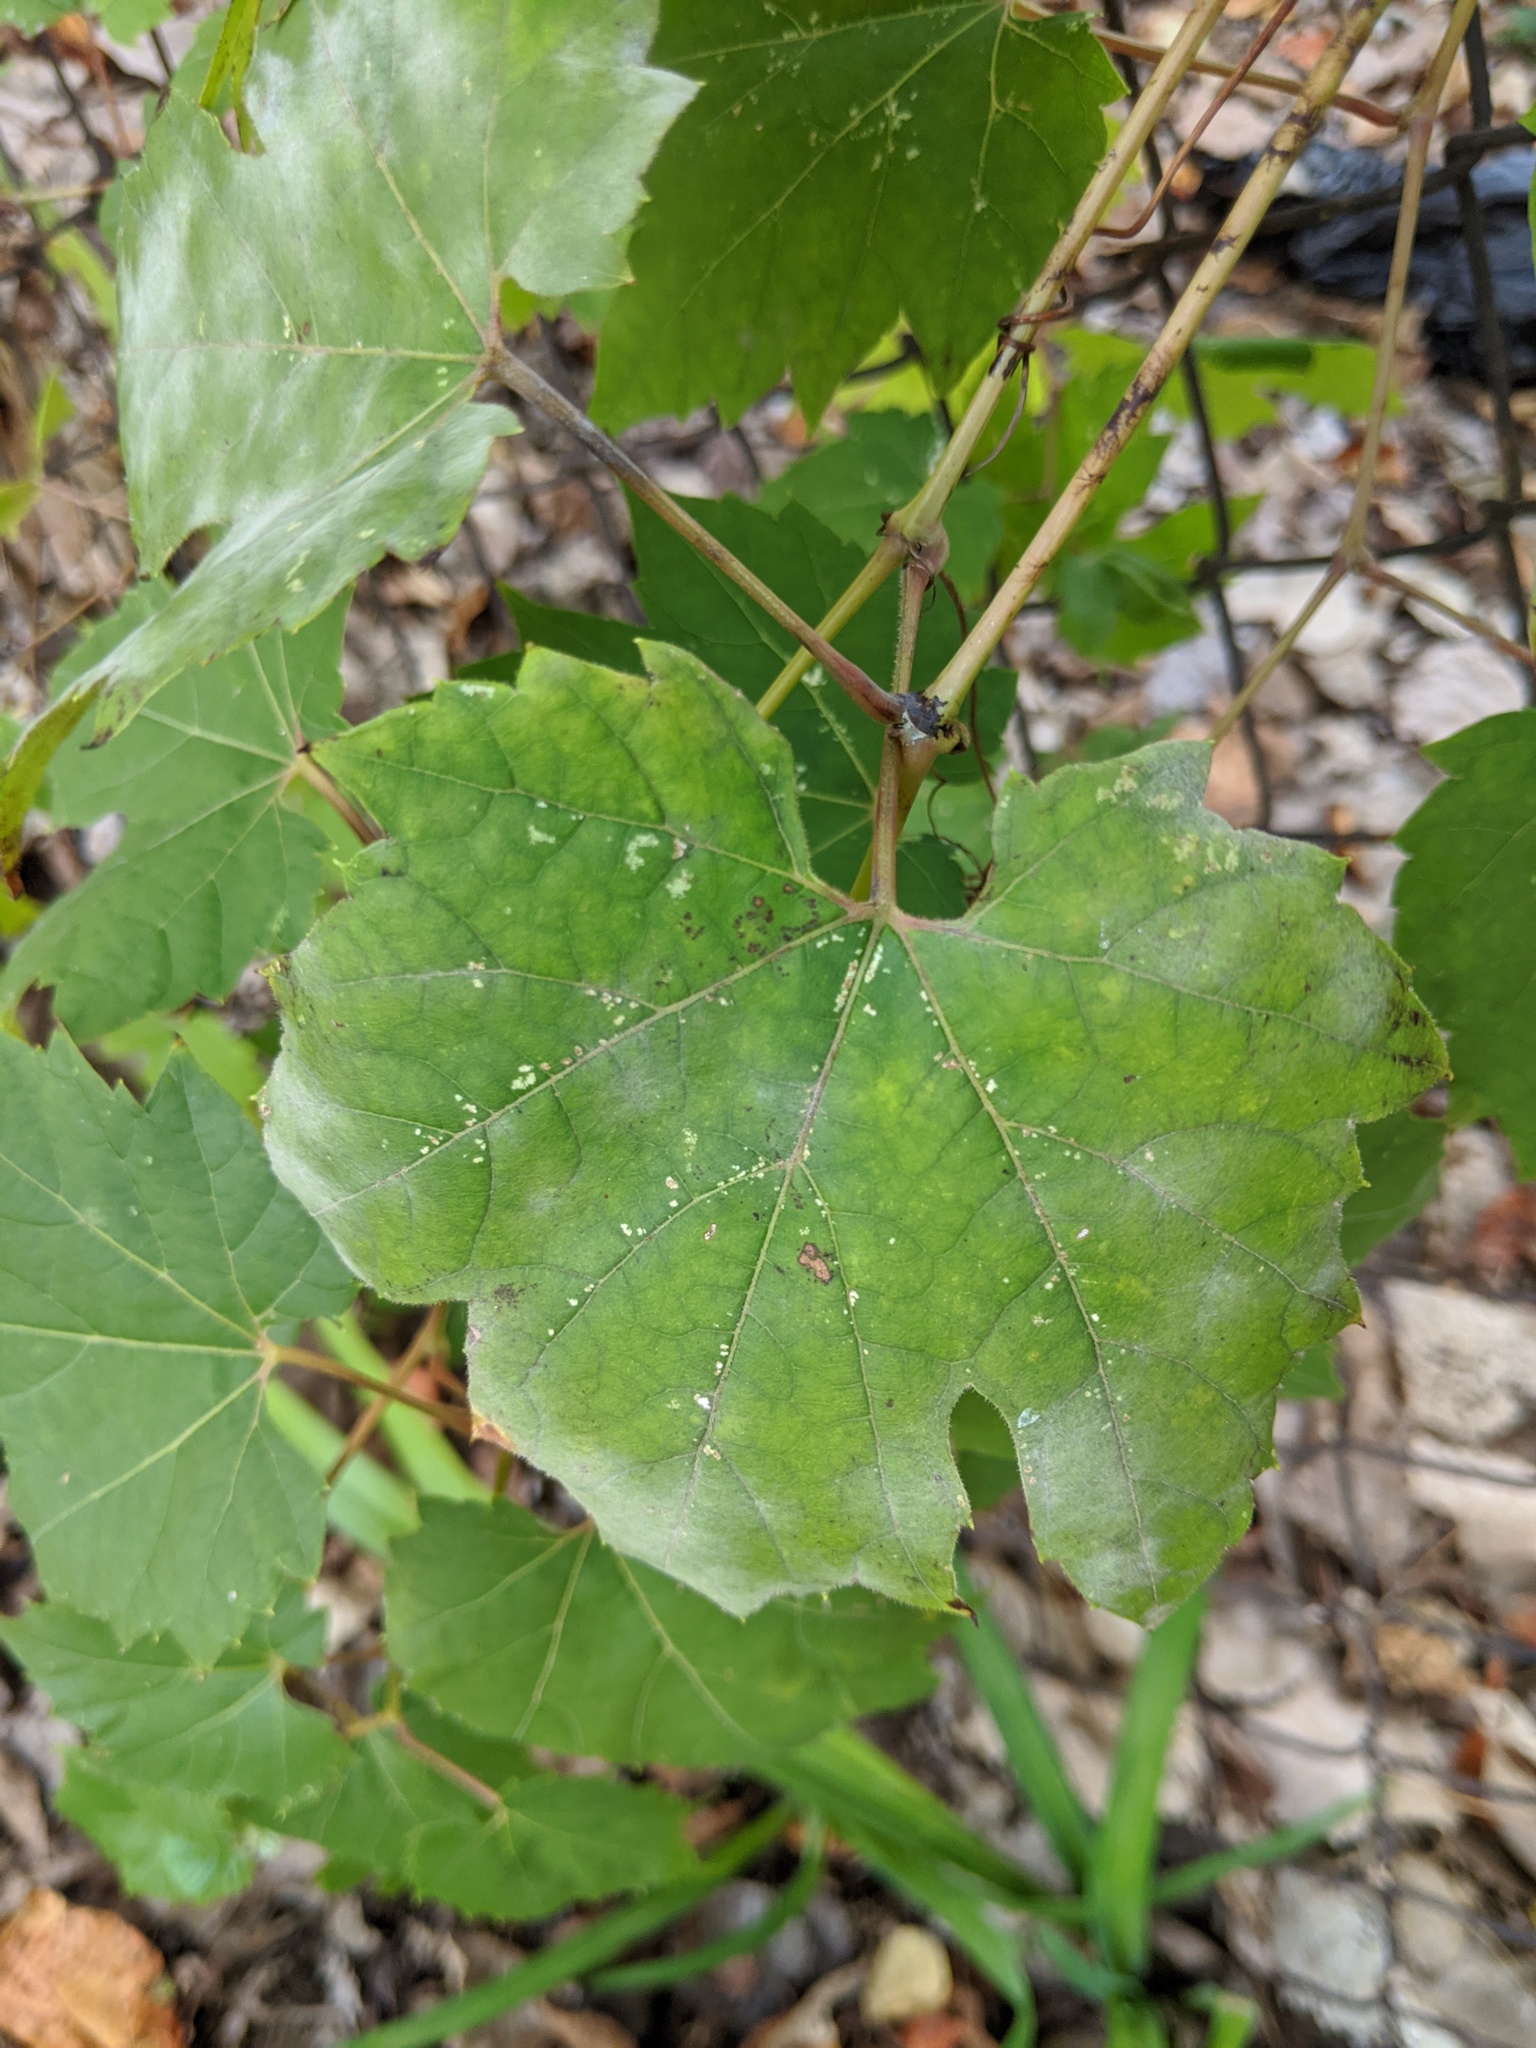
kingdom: Fungi
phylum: Ascomycota
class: Leotiomycetes
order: Helotiales
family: Erysiphaceae
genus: Erysiphe
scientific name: Erysiphe necator
